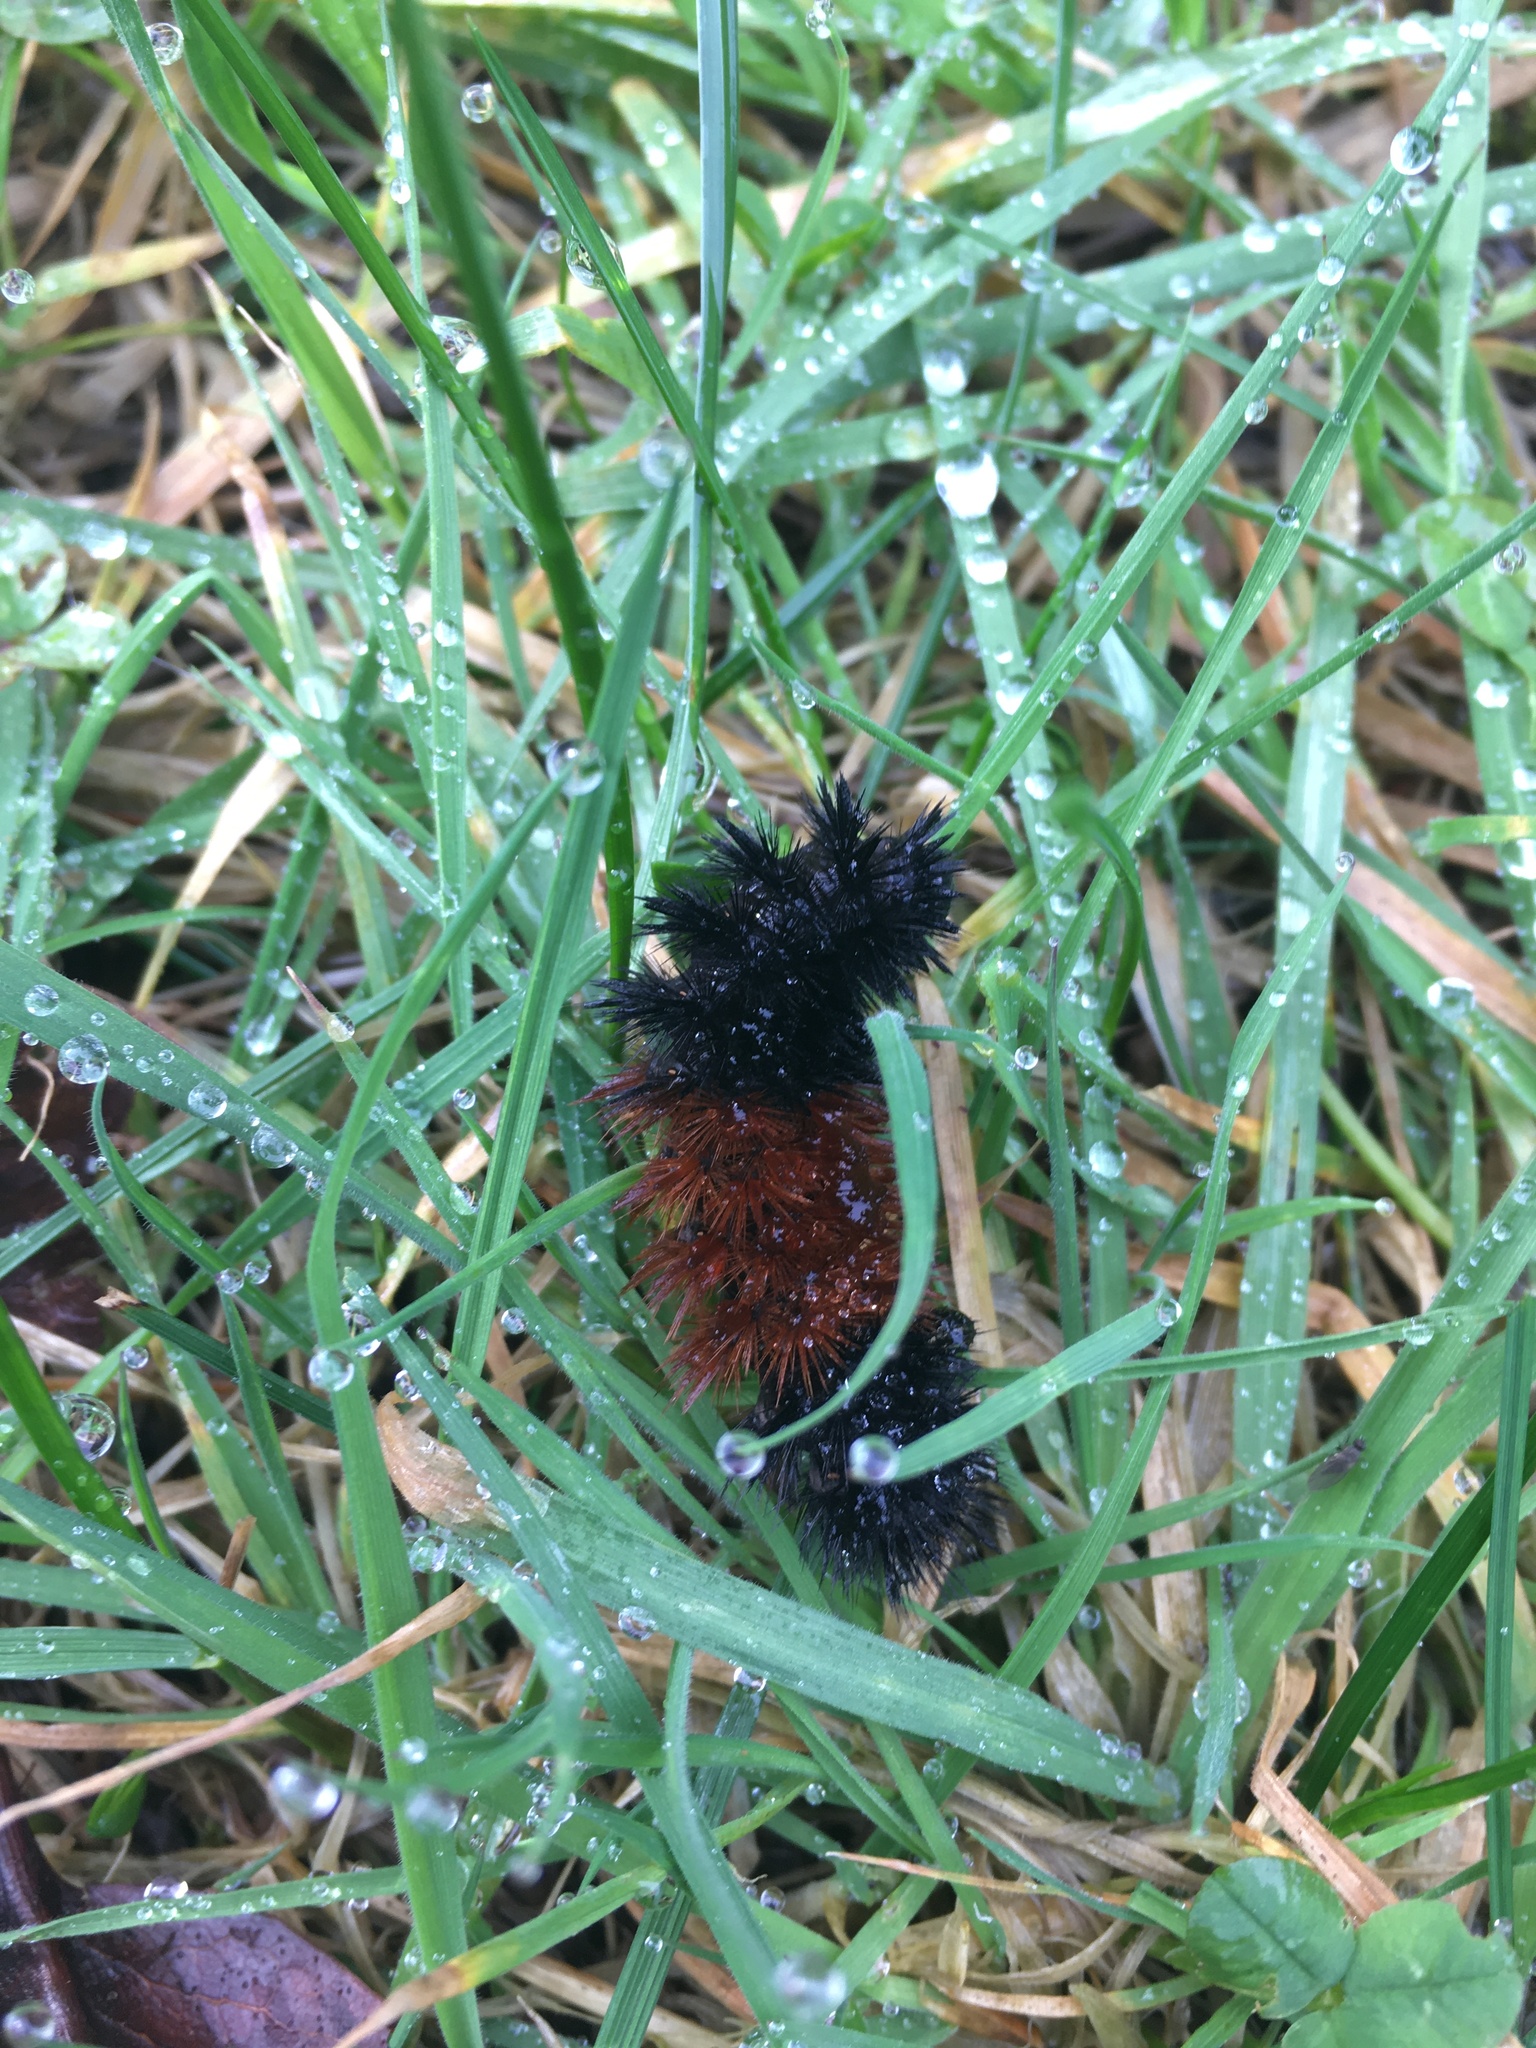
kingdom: Animalia
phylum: Arthropoda
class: Insecta
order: Lepidoptera
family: Erebidae
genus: Pyrrharctia
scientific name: Pyrrharctia isabella
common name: Isabella tiger moth
